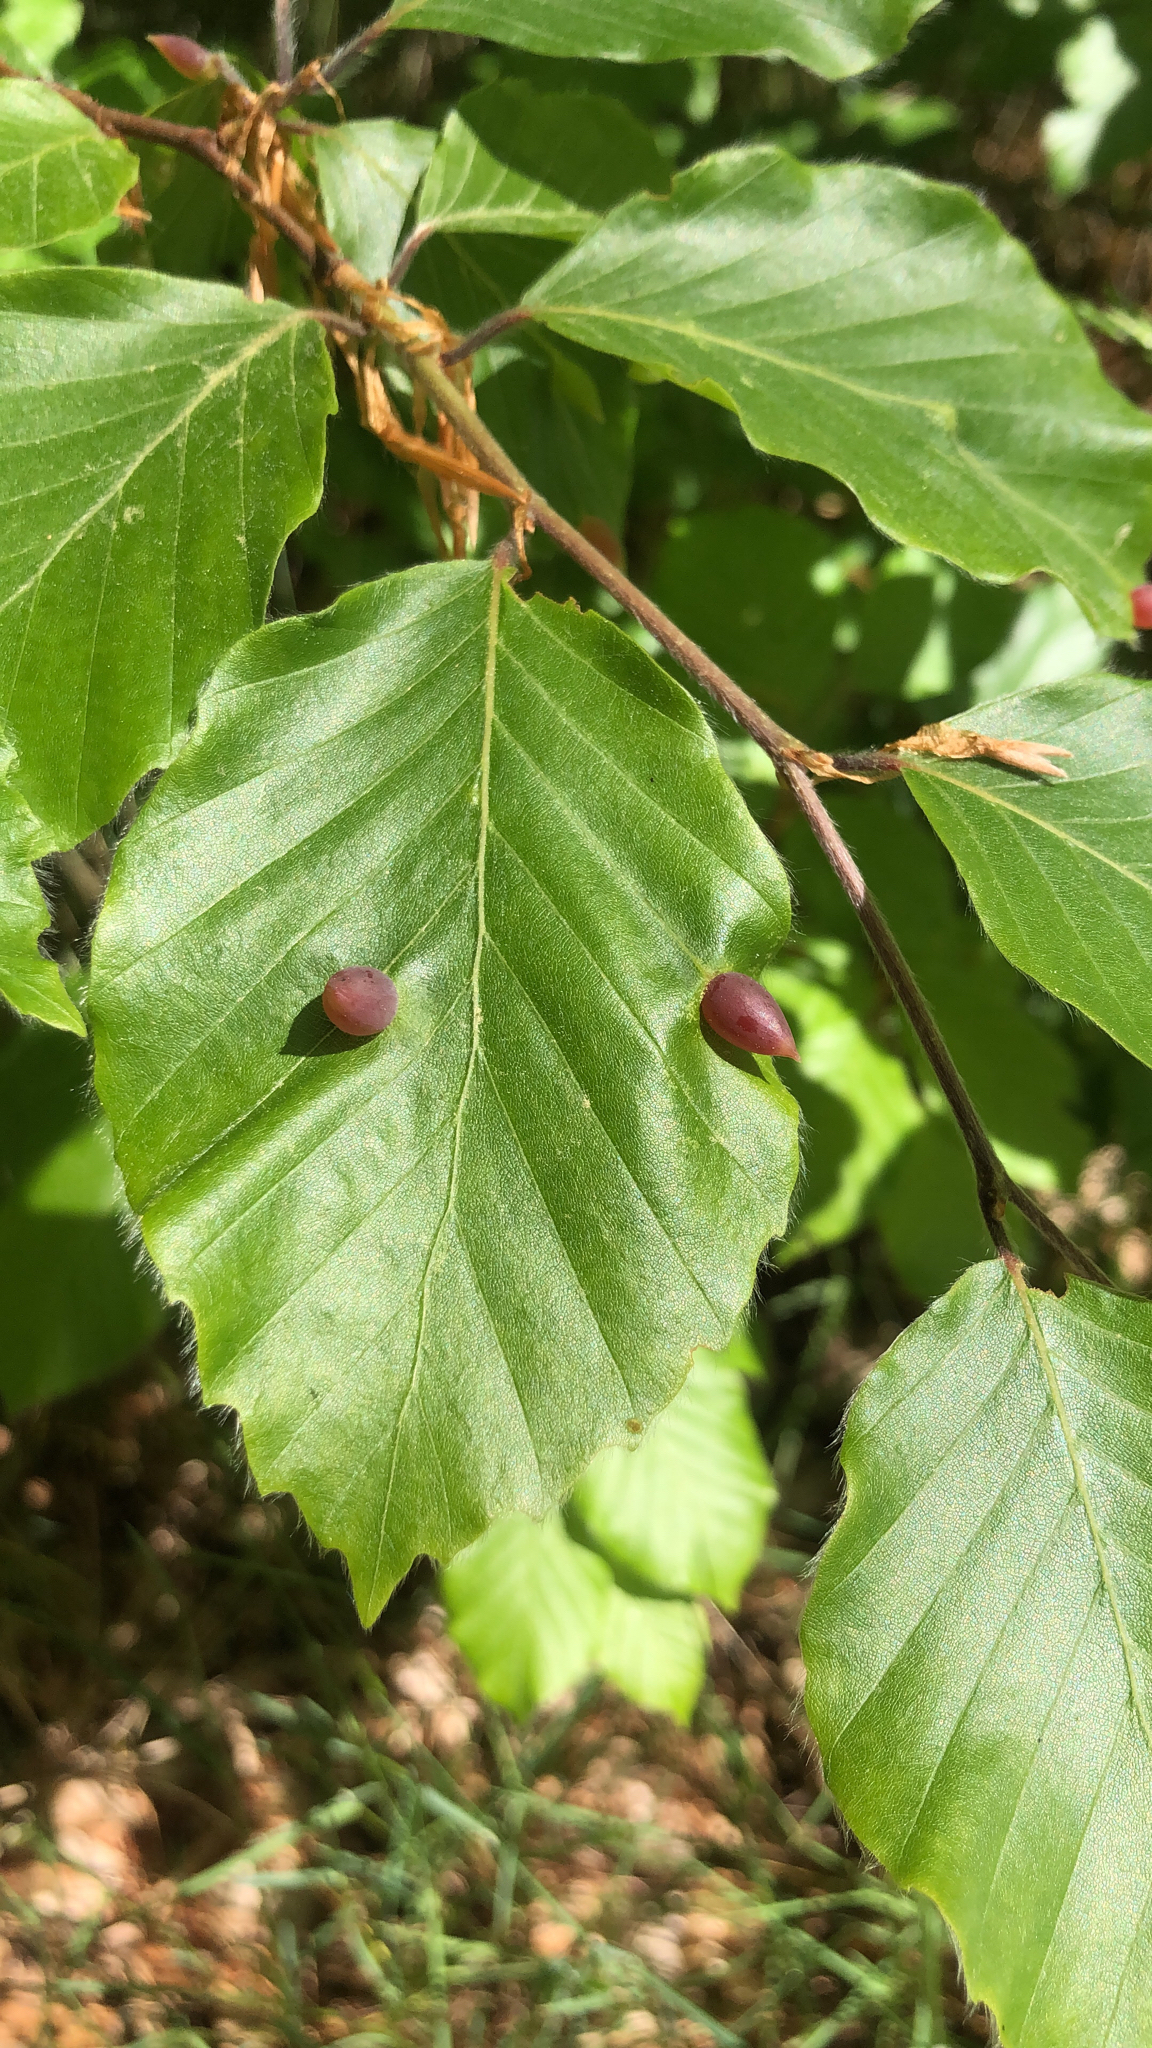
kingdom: Animalia
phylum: Arthropoda
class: Insecta
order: Diptera
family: Cecidomyiidae
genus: Mikiola
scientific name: Mikiola fagi
